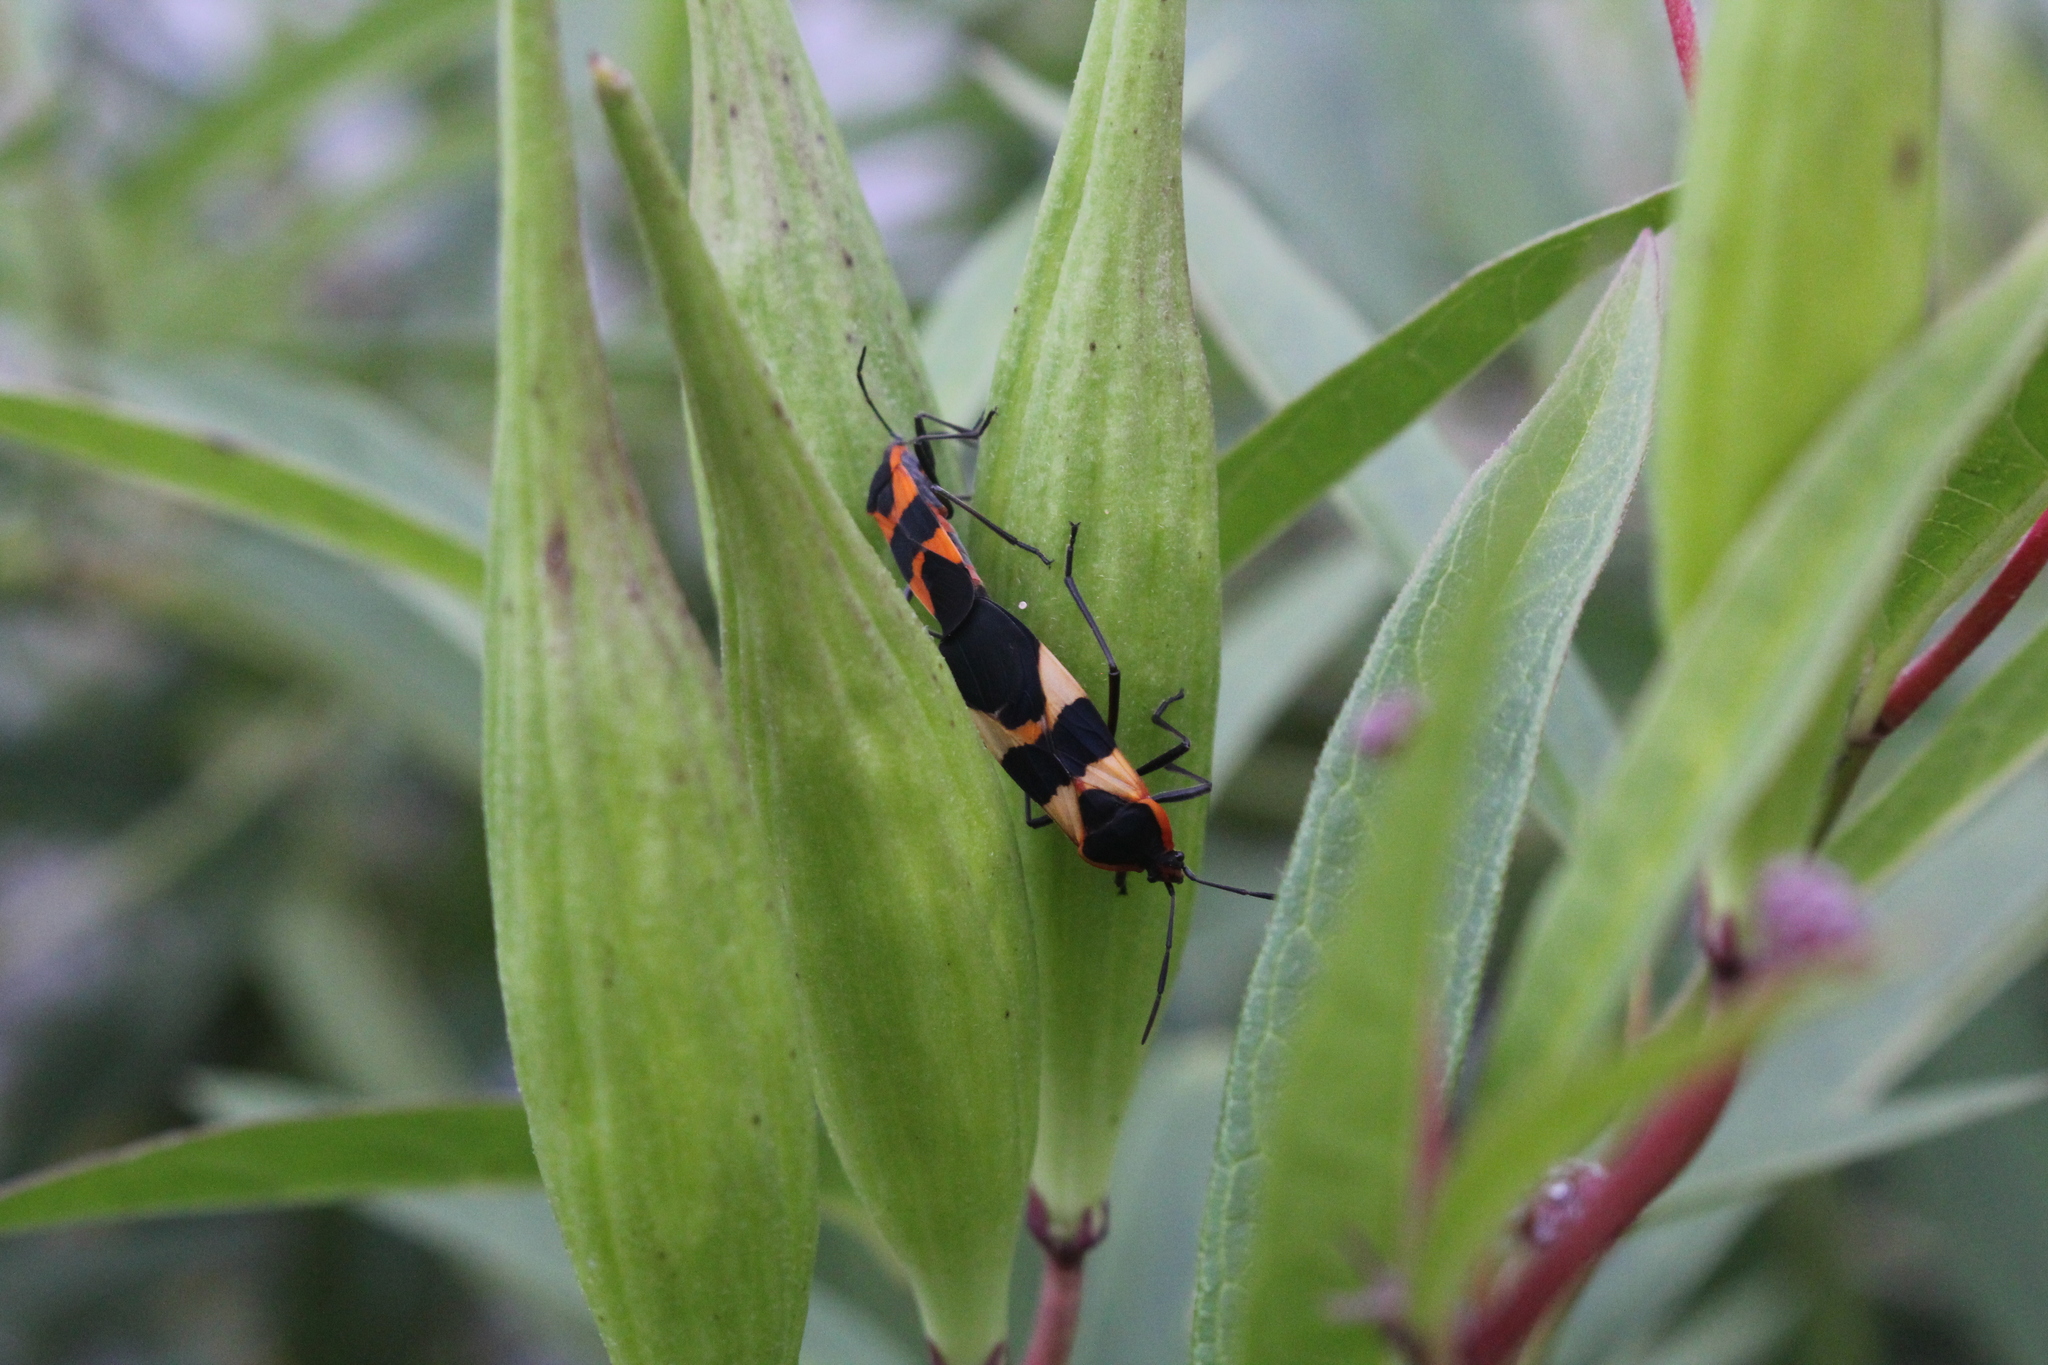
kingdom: Animalia
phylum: Arthropoda
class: Insecta
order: Hemiptera
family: Lygaeidae
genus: Oncopeltus
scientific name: Oncopeltus fasciatus
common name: Large milkweed bug
